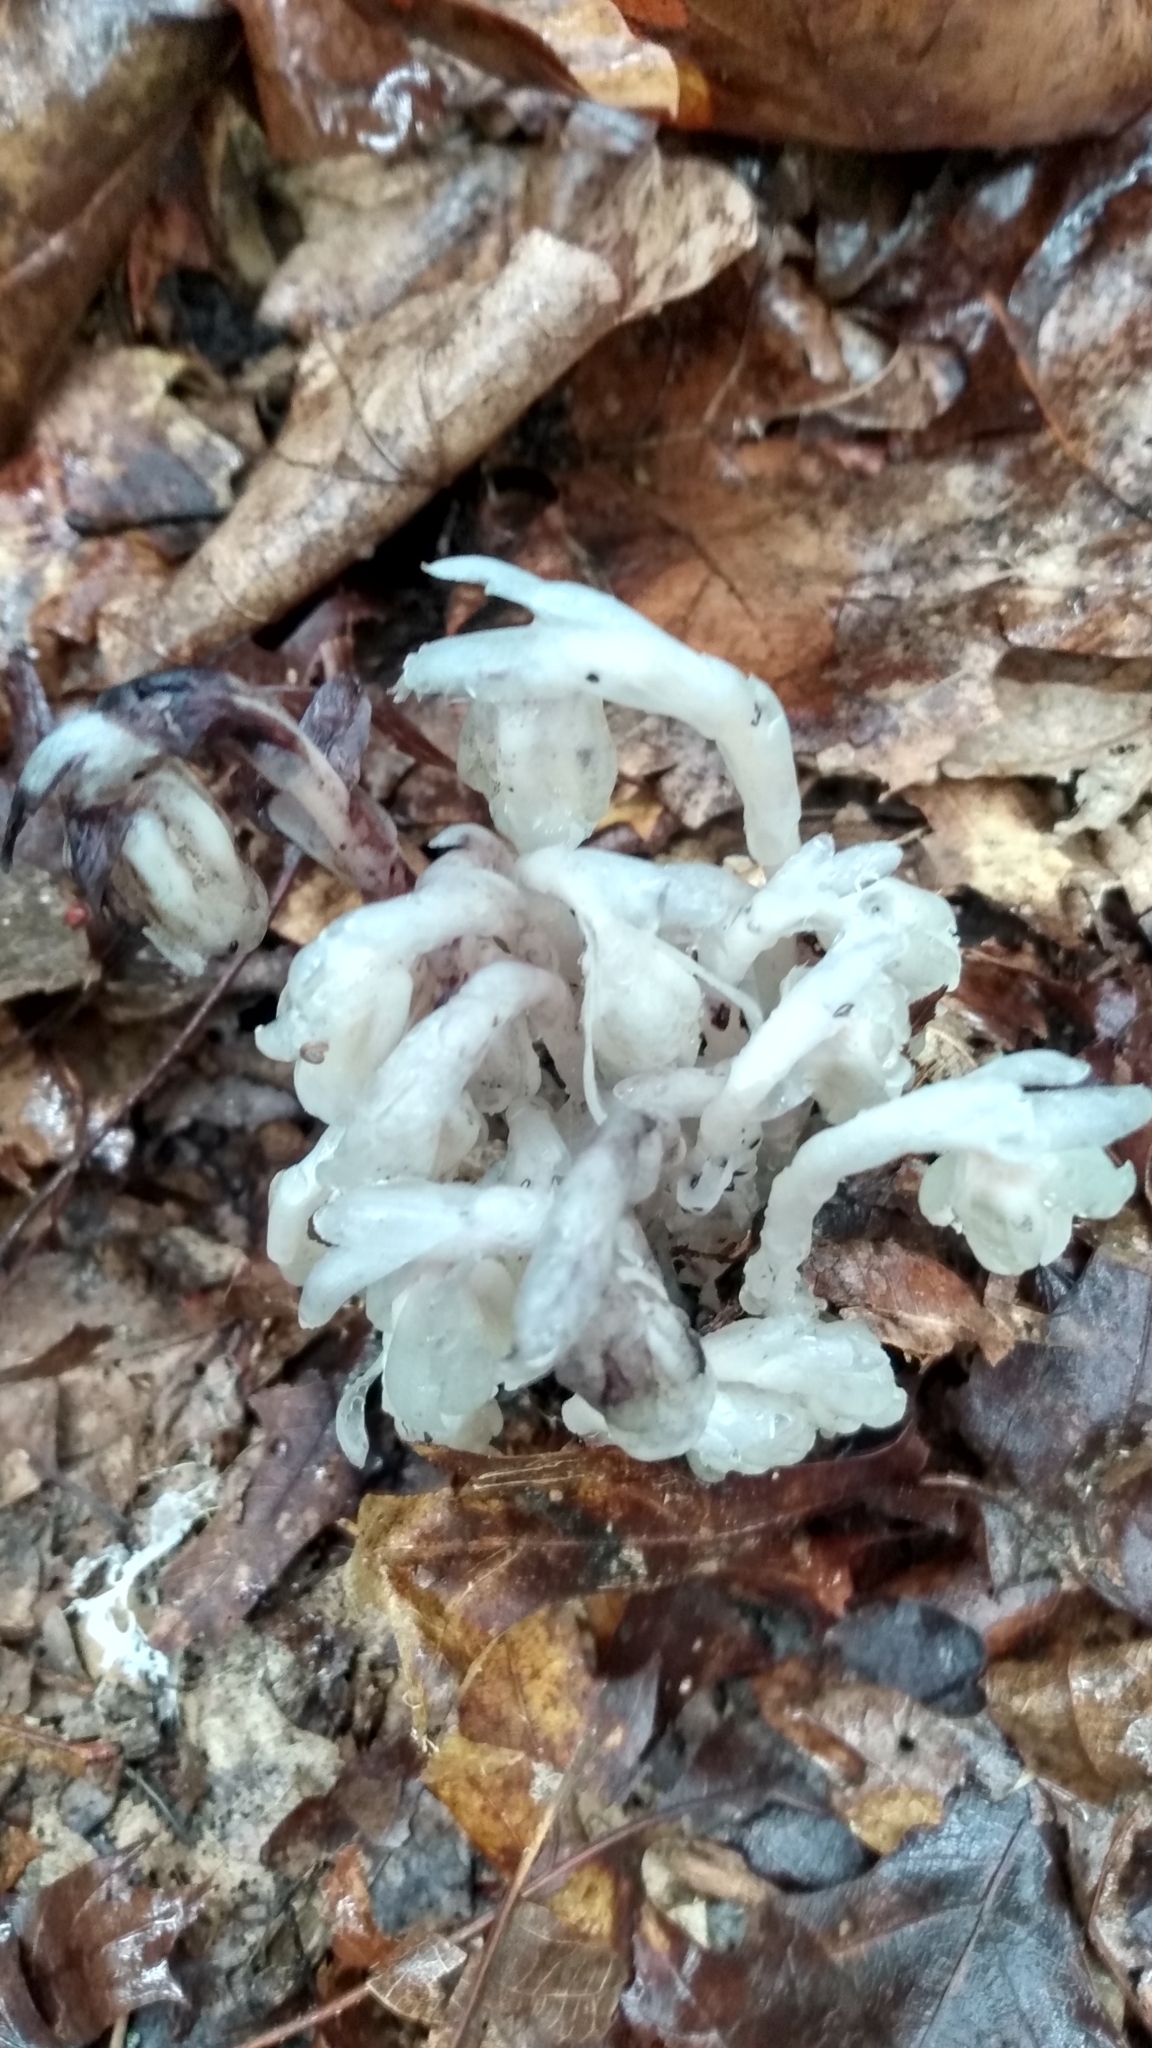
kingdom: Plantae
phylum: Tracheophyta
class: Magnoliopsida
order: Ericales
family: Ericaceae
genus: Monotropa
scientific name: Monotropa uniflora
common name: Convulsion root
